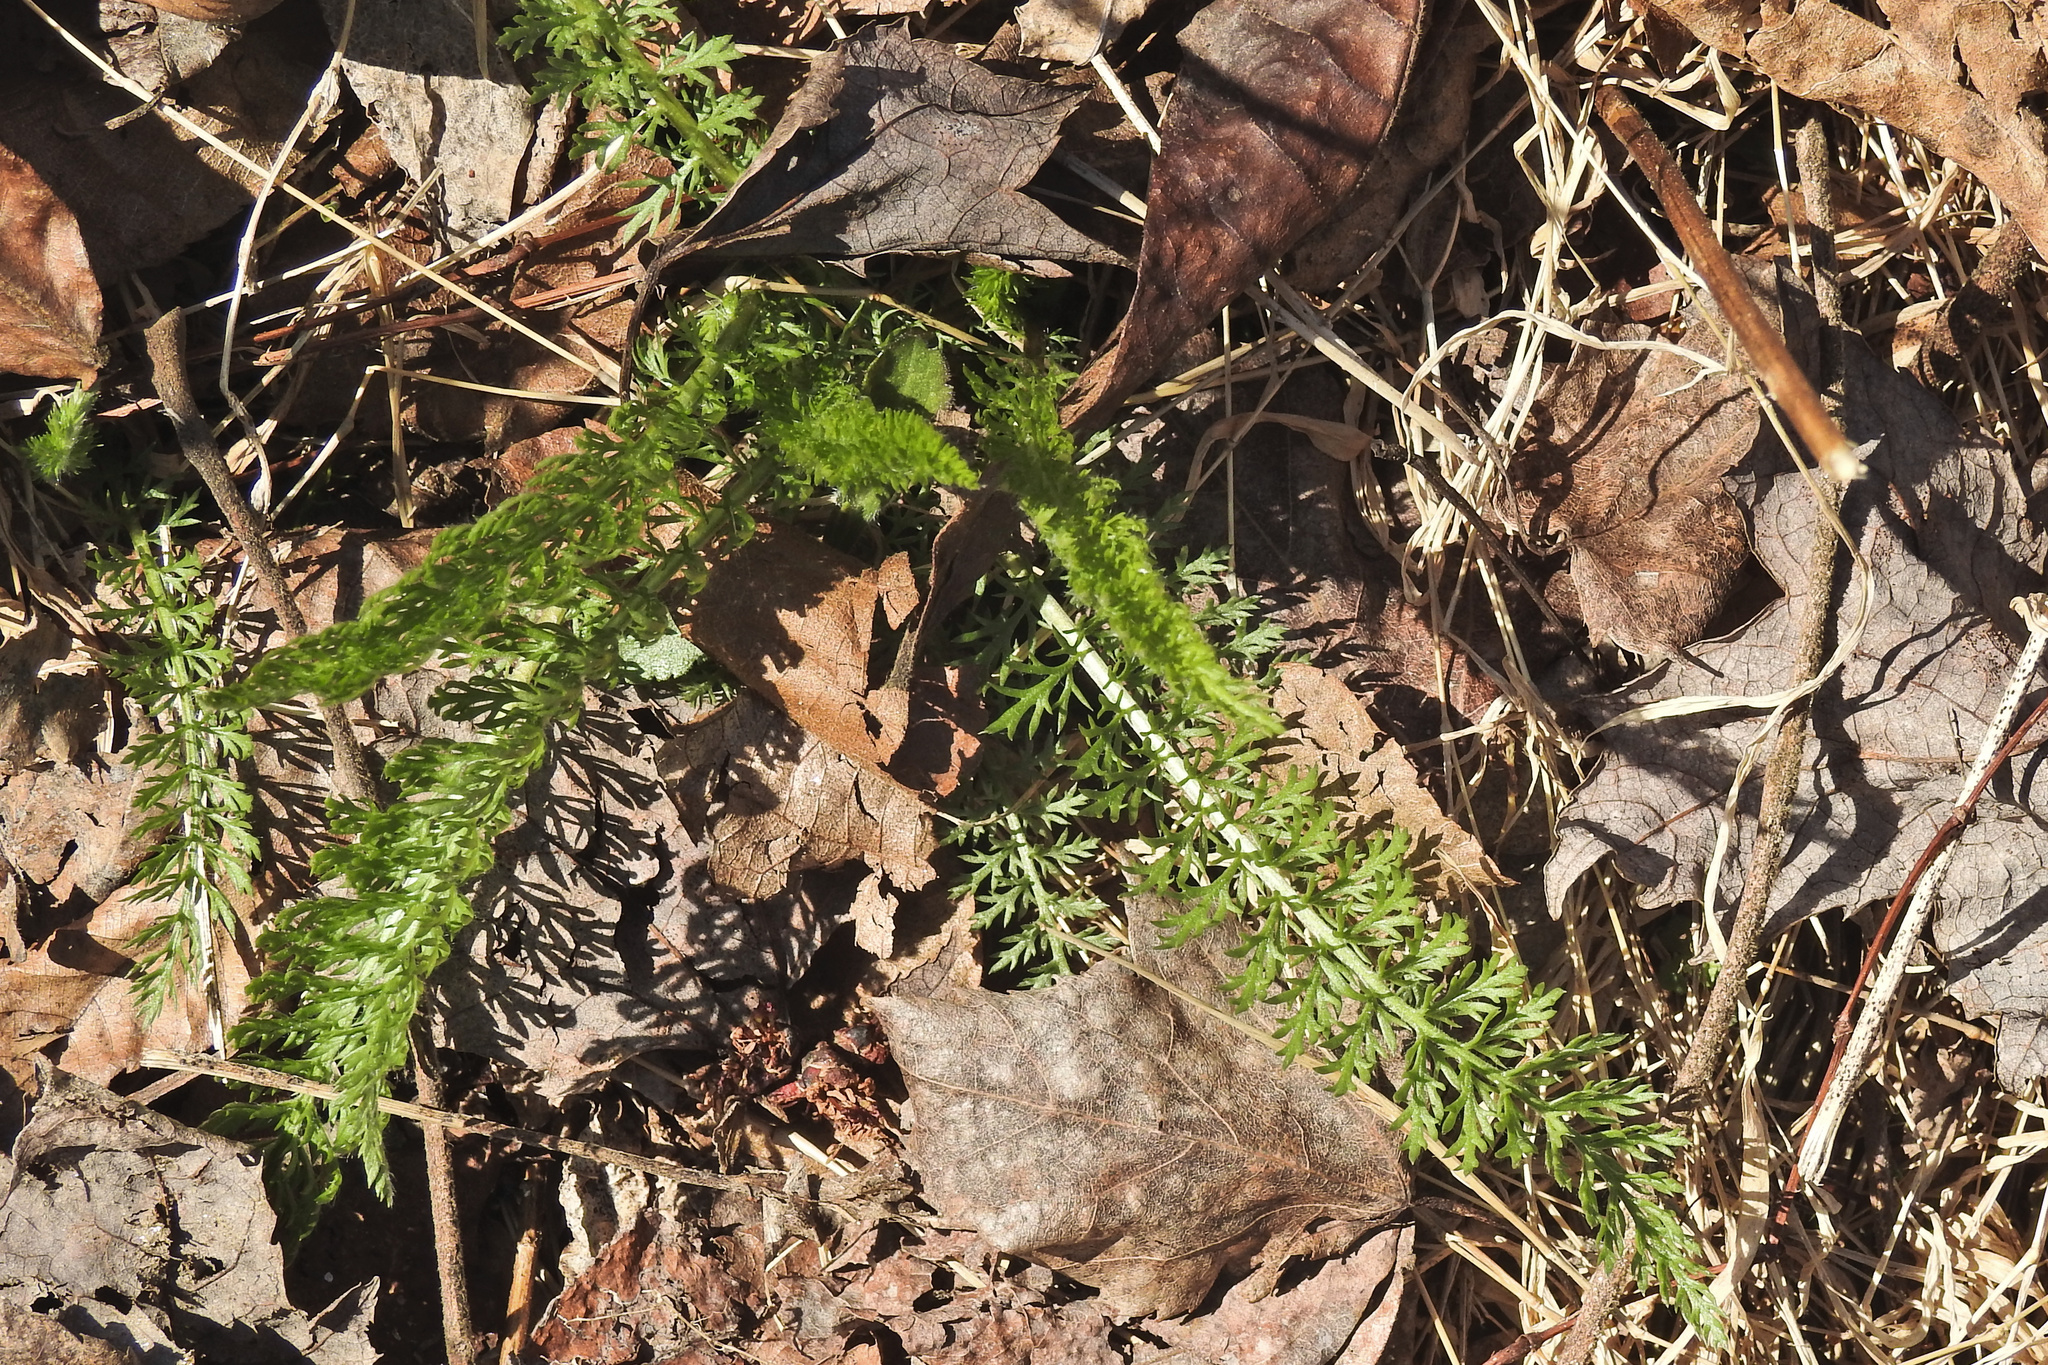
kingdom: Plantae
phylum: Tracheophyta
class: Magnoliopsida
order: Asterales
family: Asteraceae
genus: Achillea
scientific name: Achillea millefolium
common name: Yarrow
